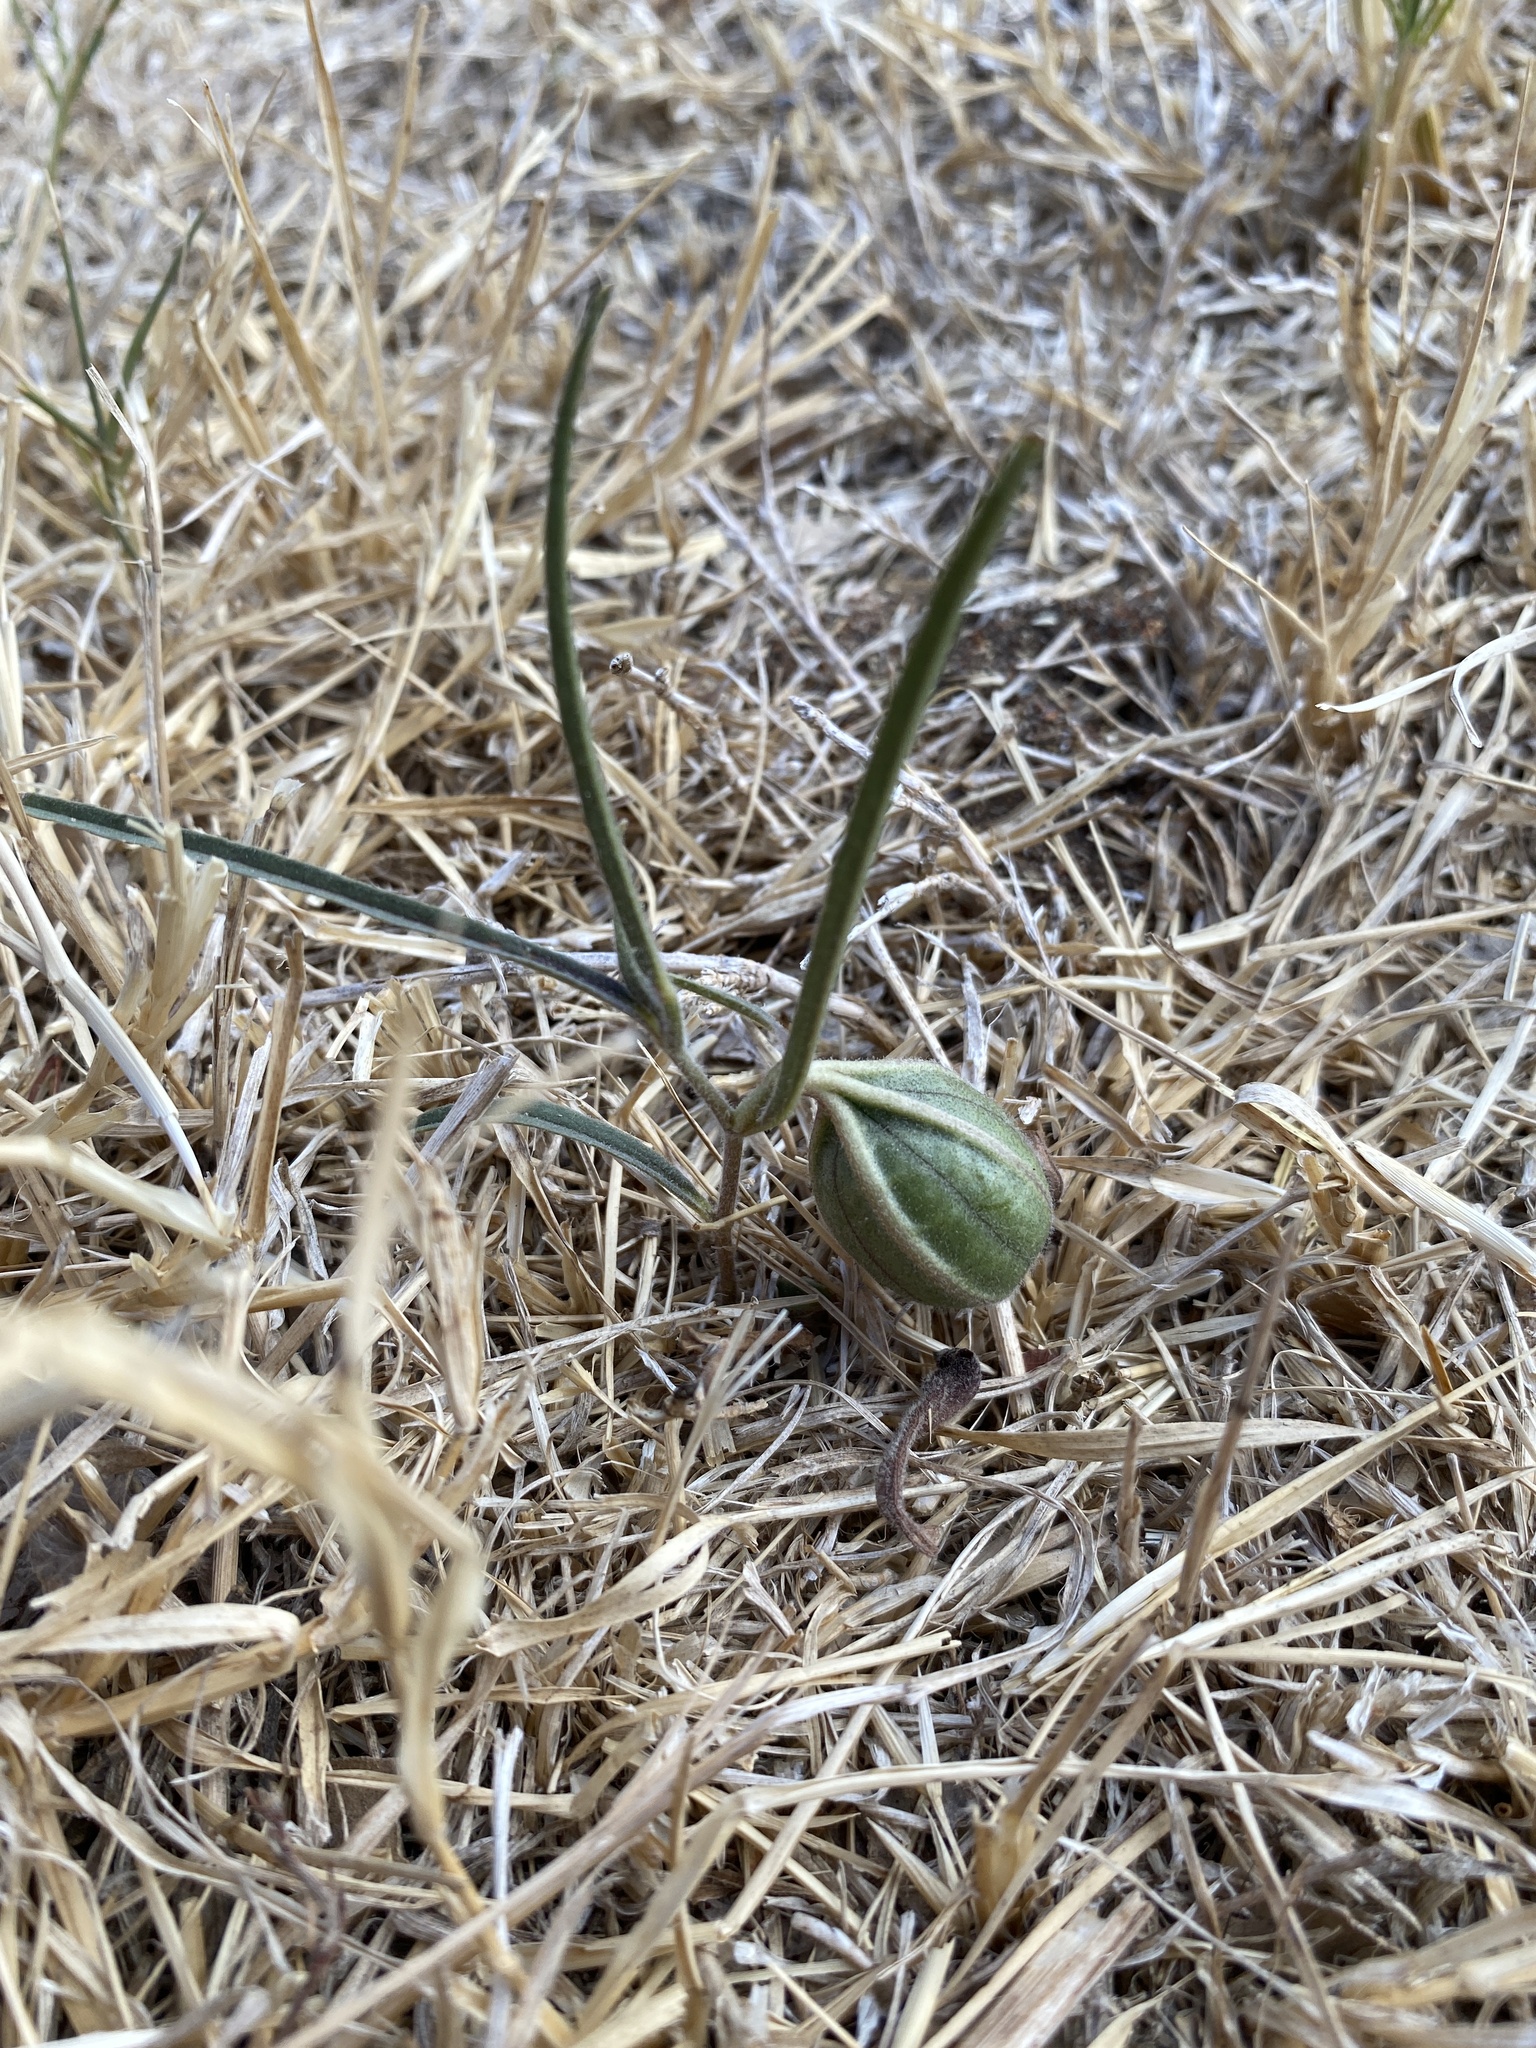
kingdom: Plantae
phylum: Tracheophyta
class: Magnoliopsida
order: Piperales
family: Aristolochiaceae
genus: Aristolochia
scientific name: Aristolochia erecta
